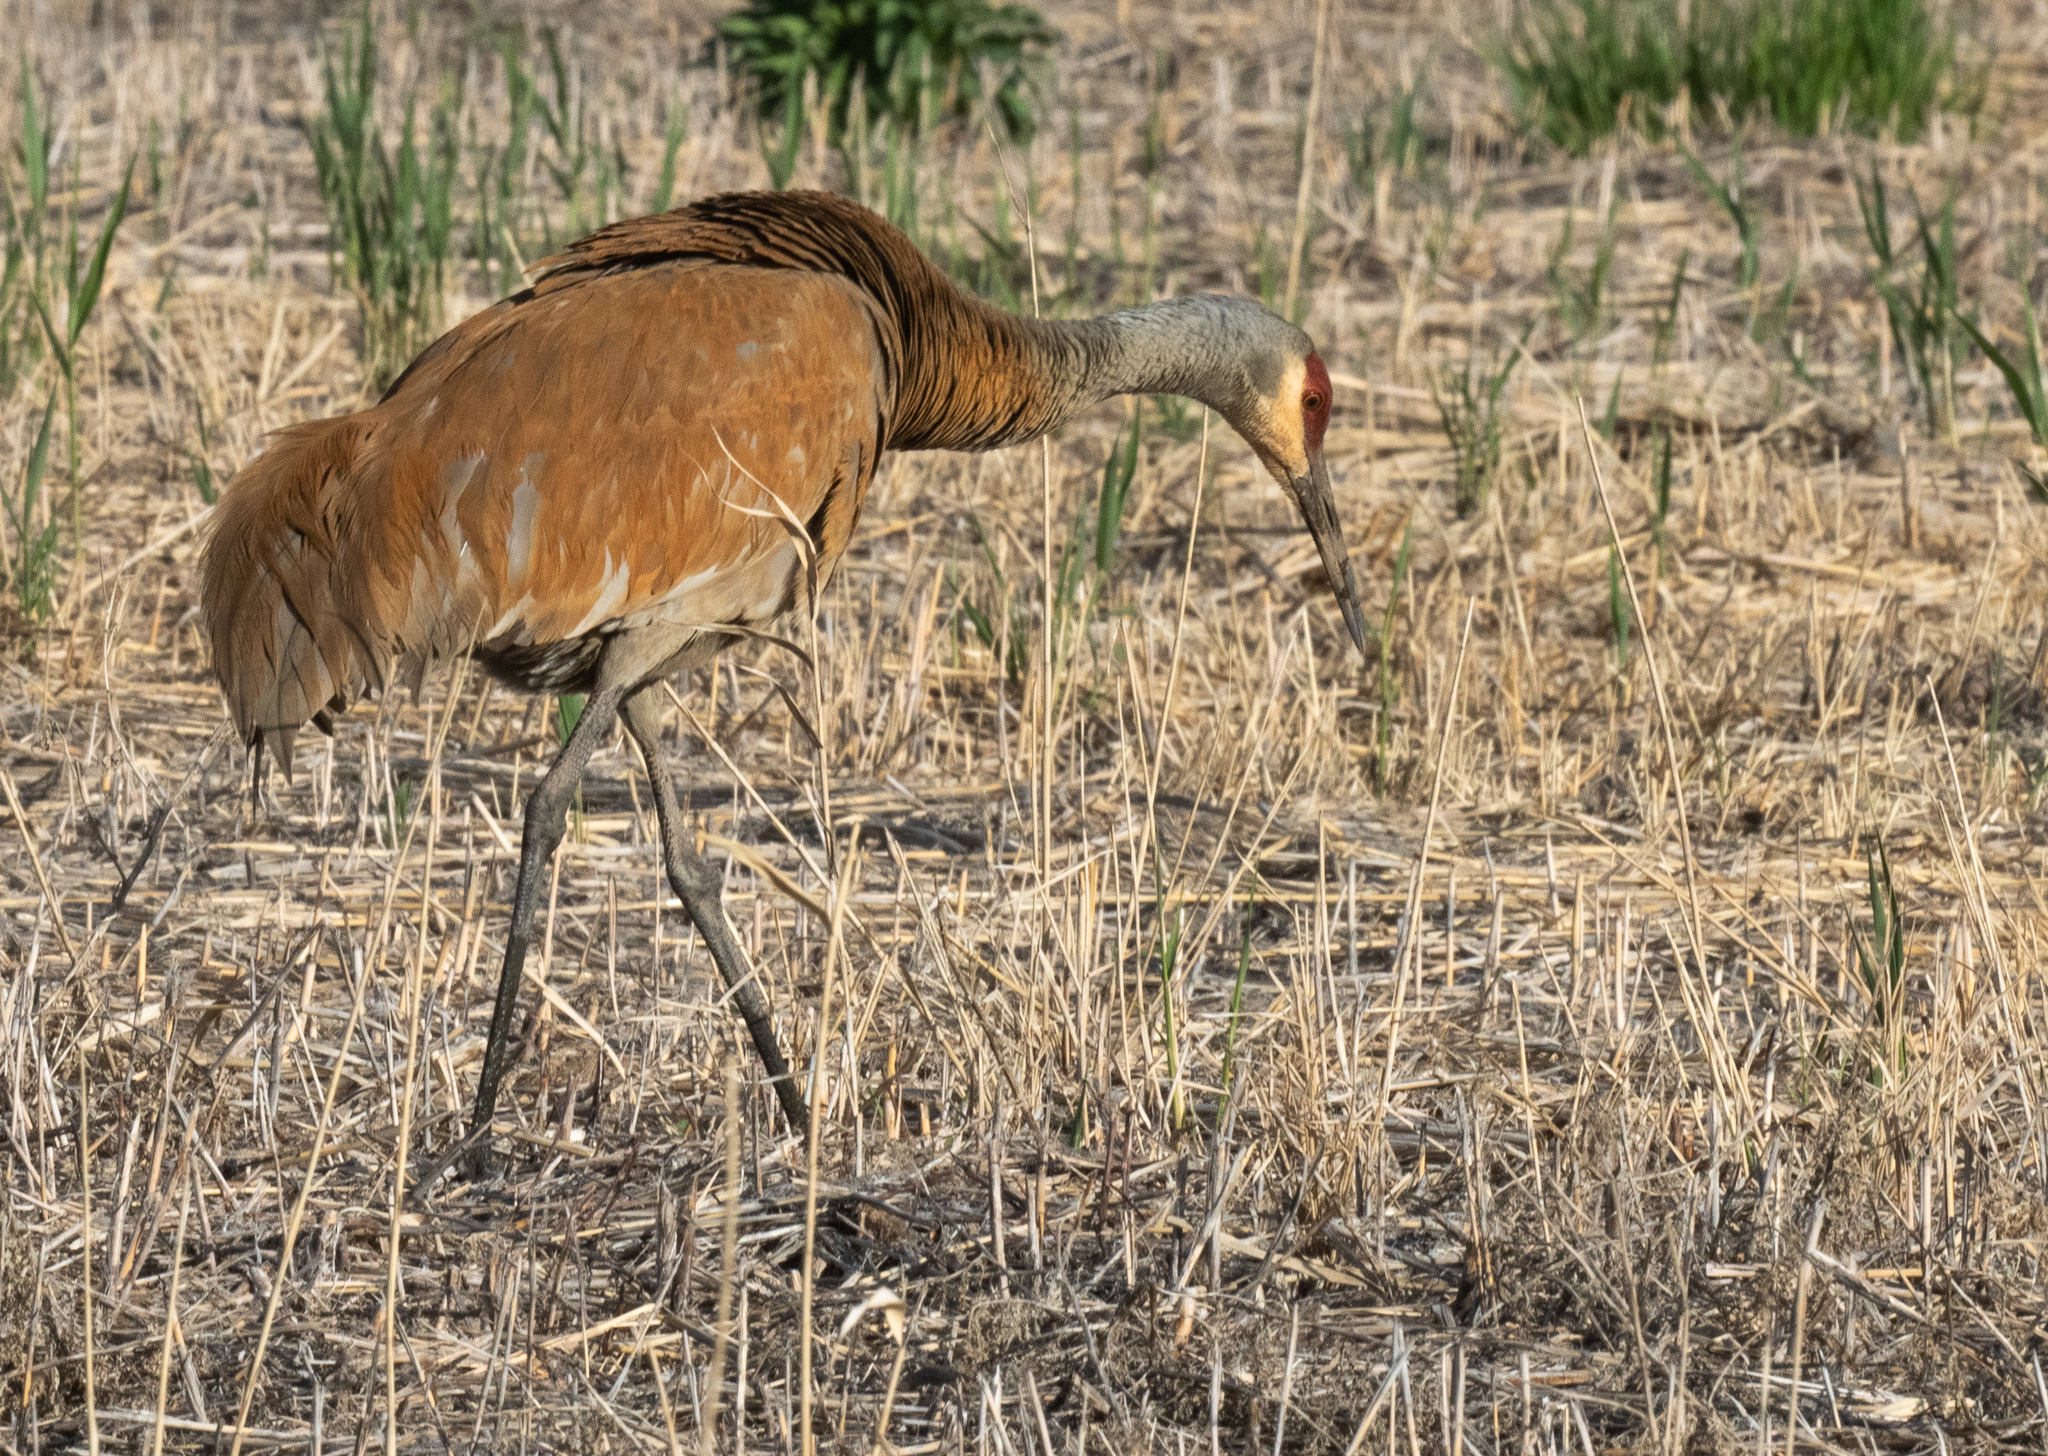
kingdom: Animalia
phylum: Chordata
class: Aves
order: Gruiformes
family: Gruidae
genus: Grus
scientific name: Grus canadensis
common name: Sandhill crane
